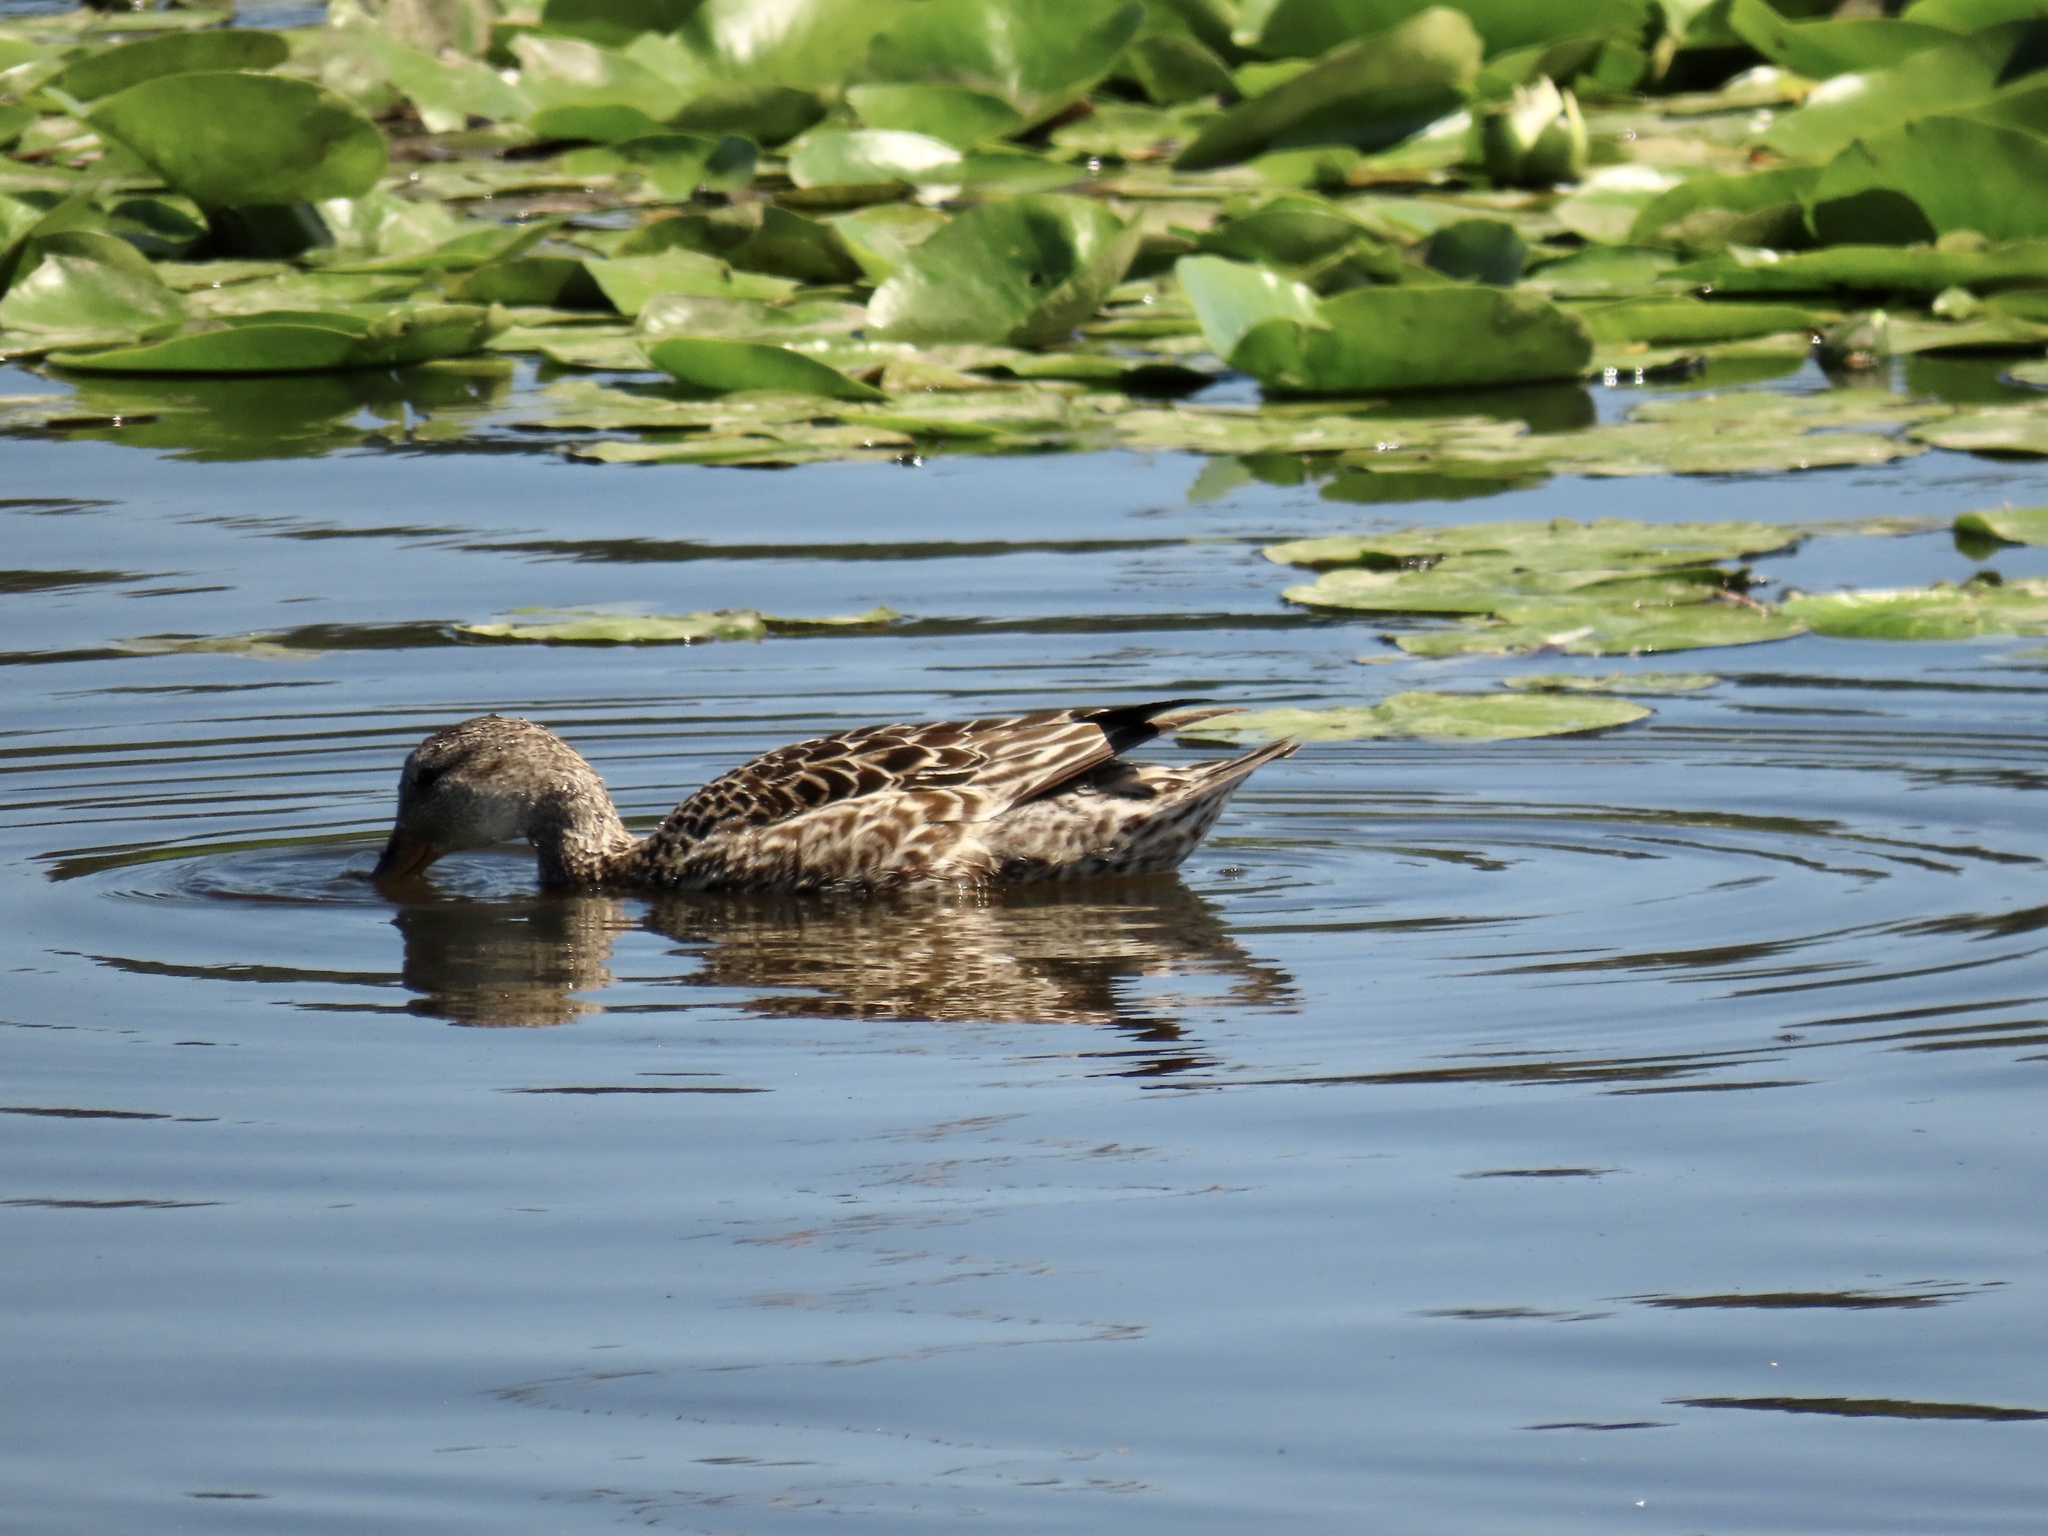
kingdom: Animalia
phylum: Chordata
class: Aves
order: Anseriformes
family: Anatidae
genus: Anas
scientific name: Anas platyrhynchos
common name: Mallard
